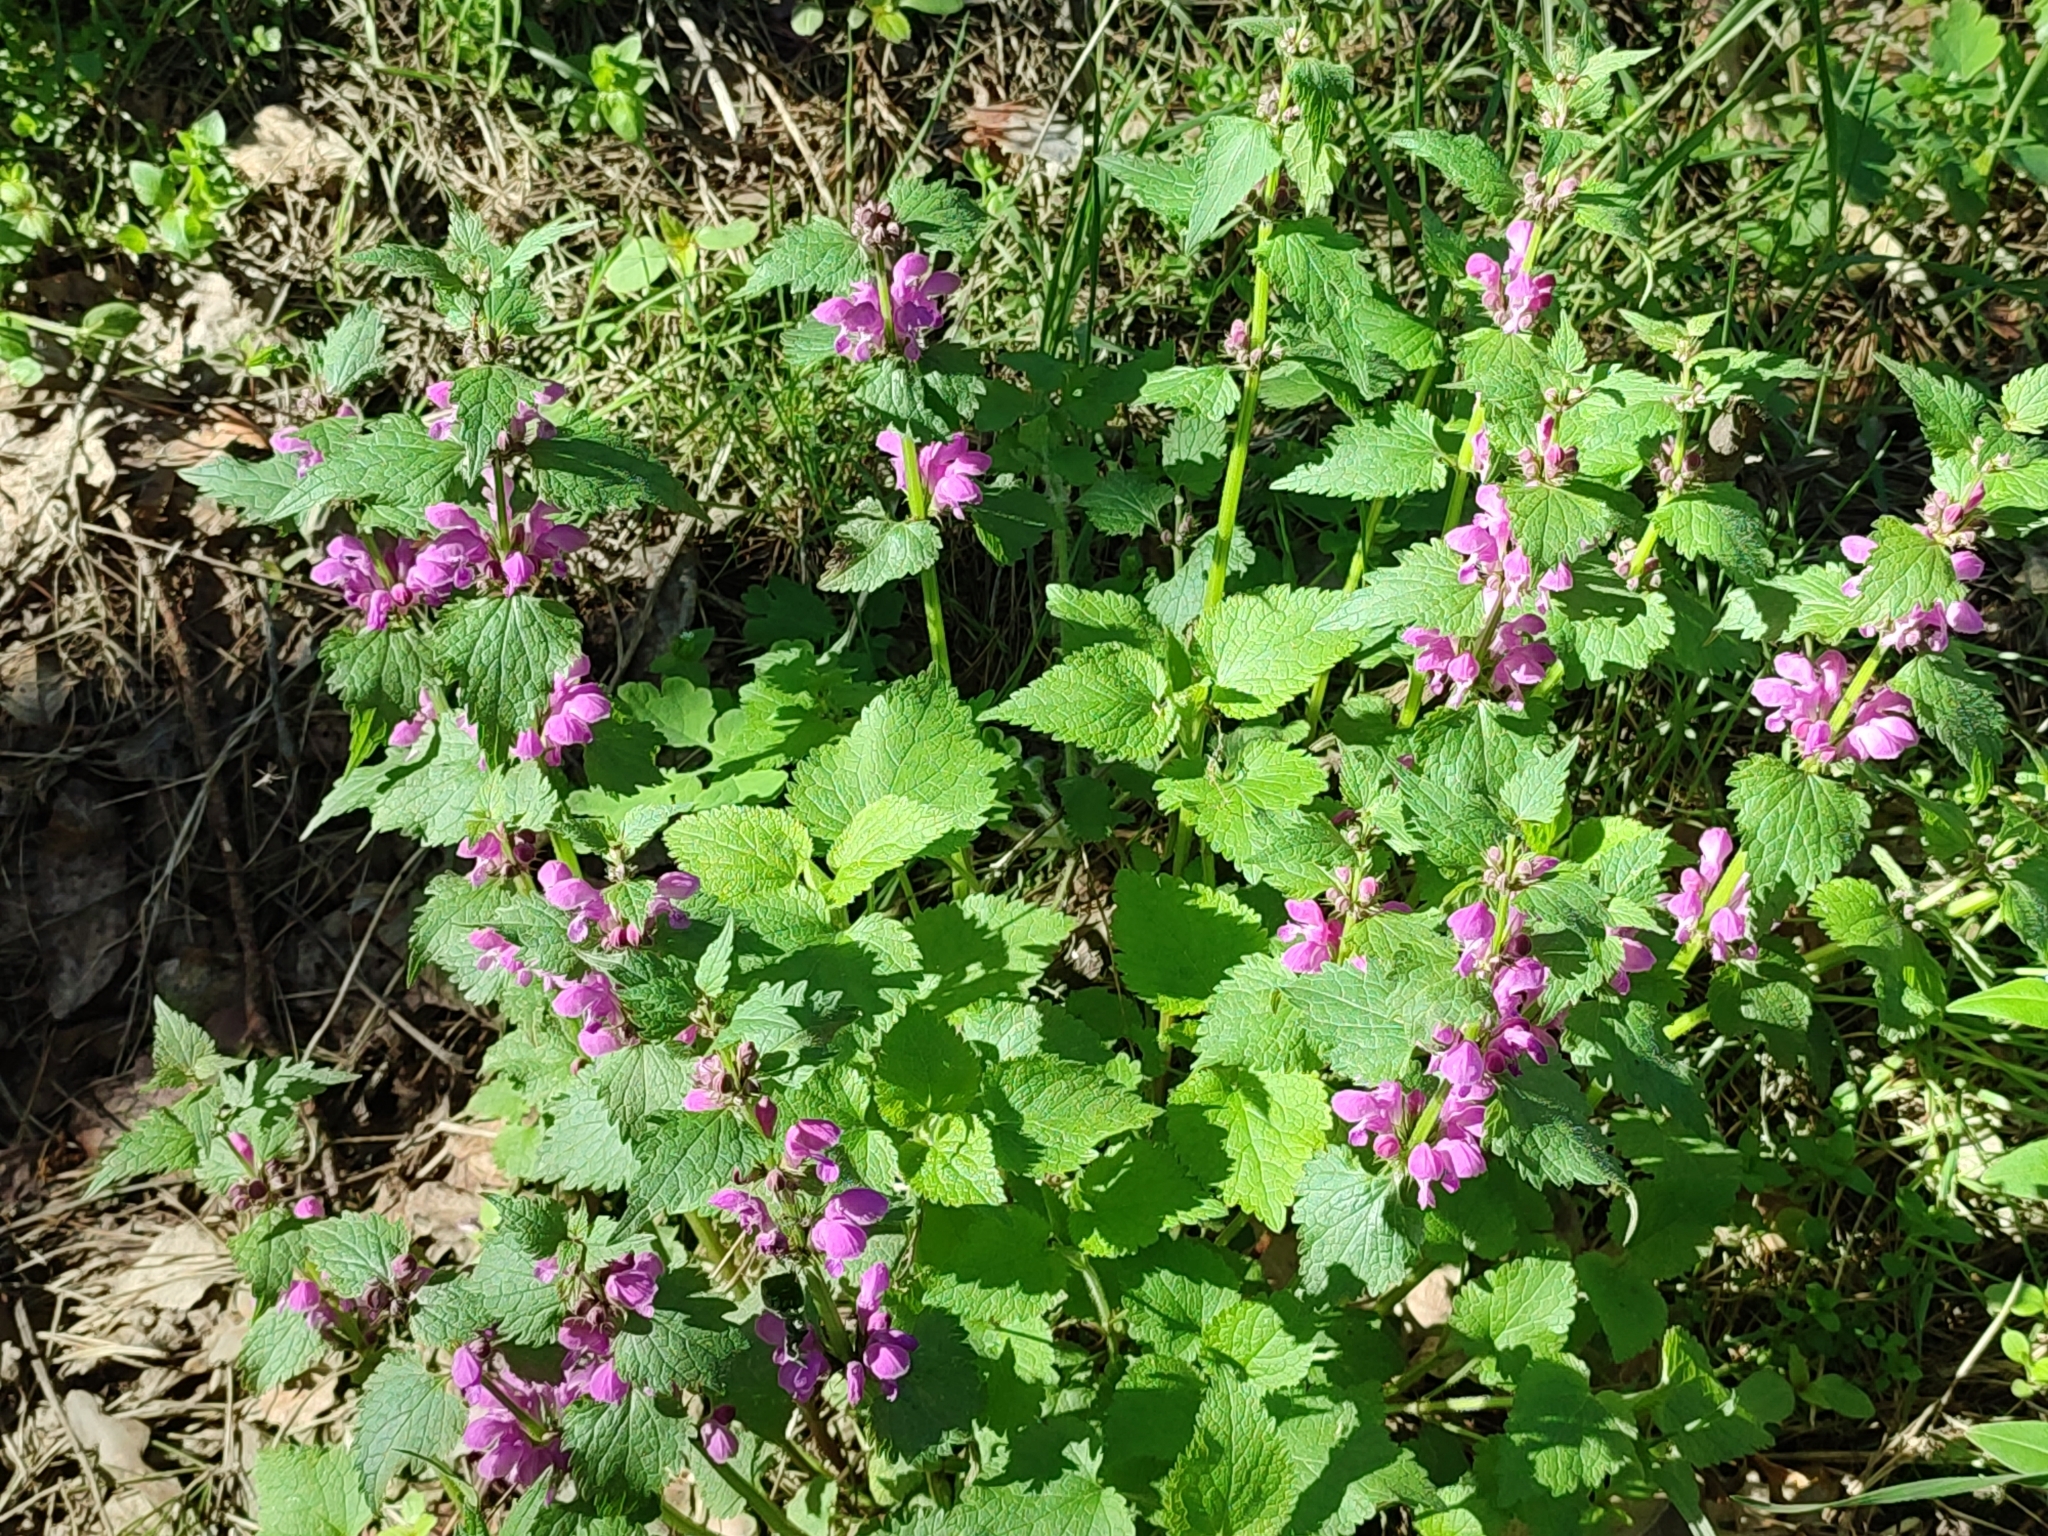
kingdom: Plantae
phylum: Tracheophyta
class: Magnoliopsida
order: Lamiales
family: Lamiaceae
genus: Lamium
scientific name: Lamium maculatum
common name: Spotted dead-nettle
